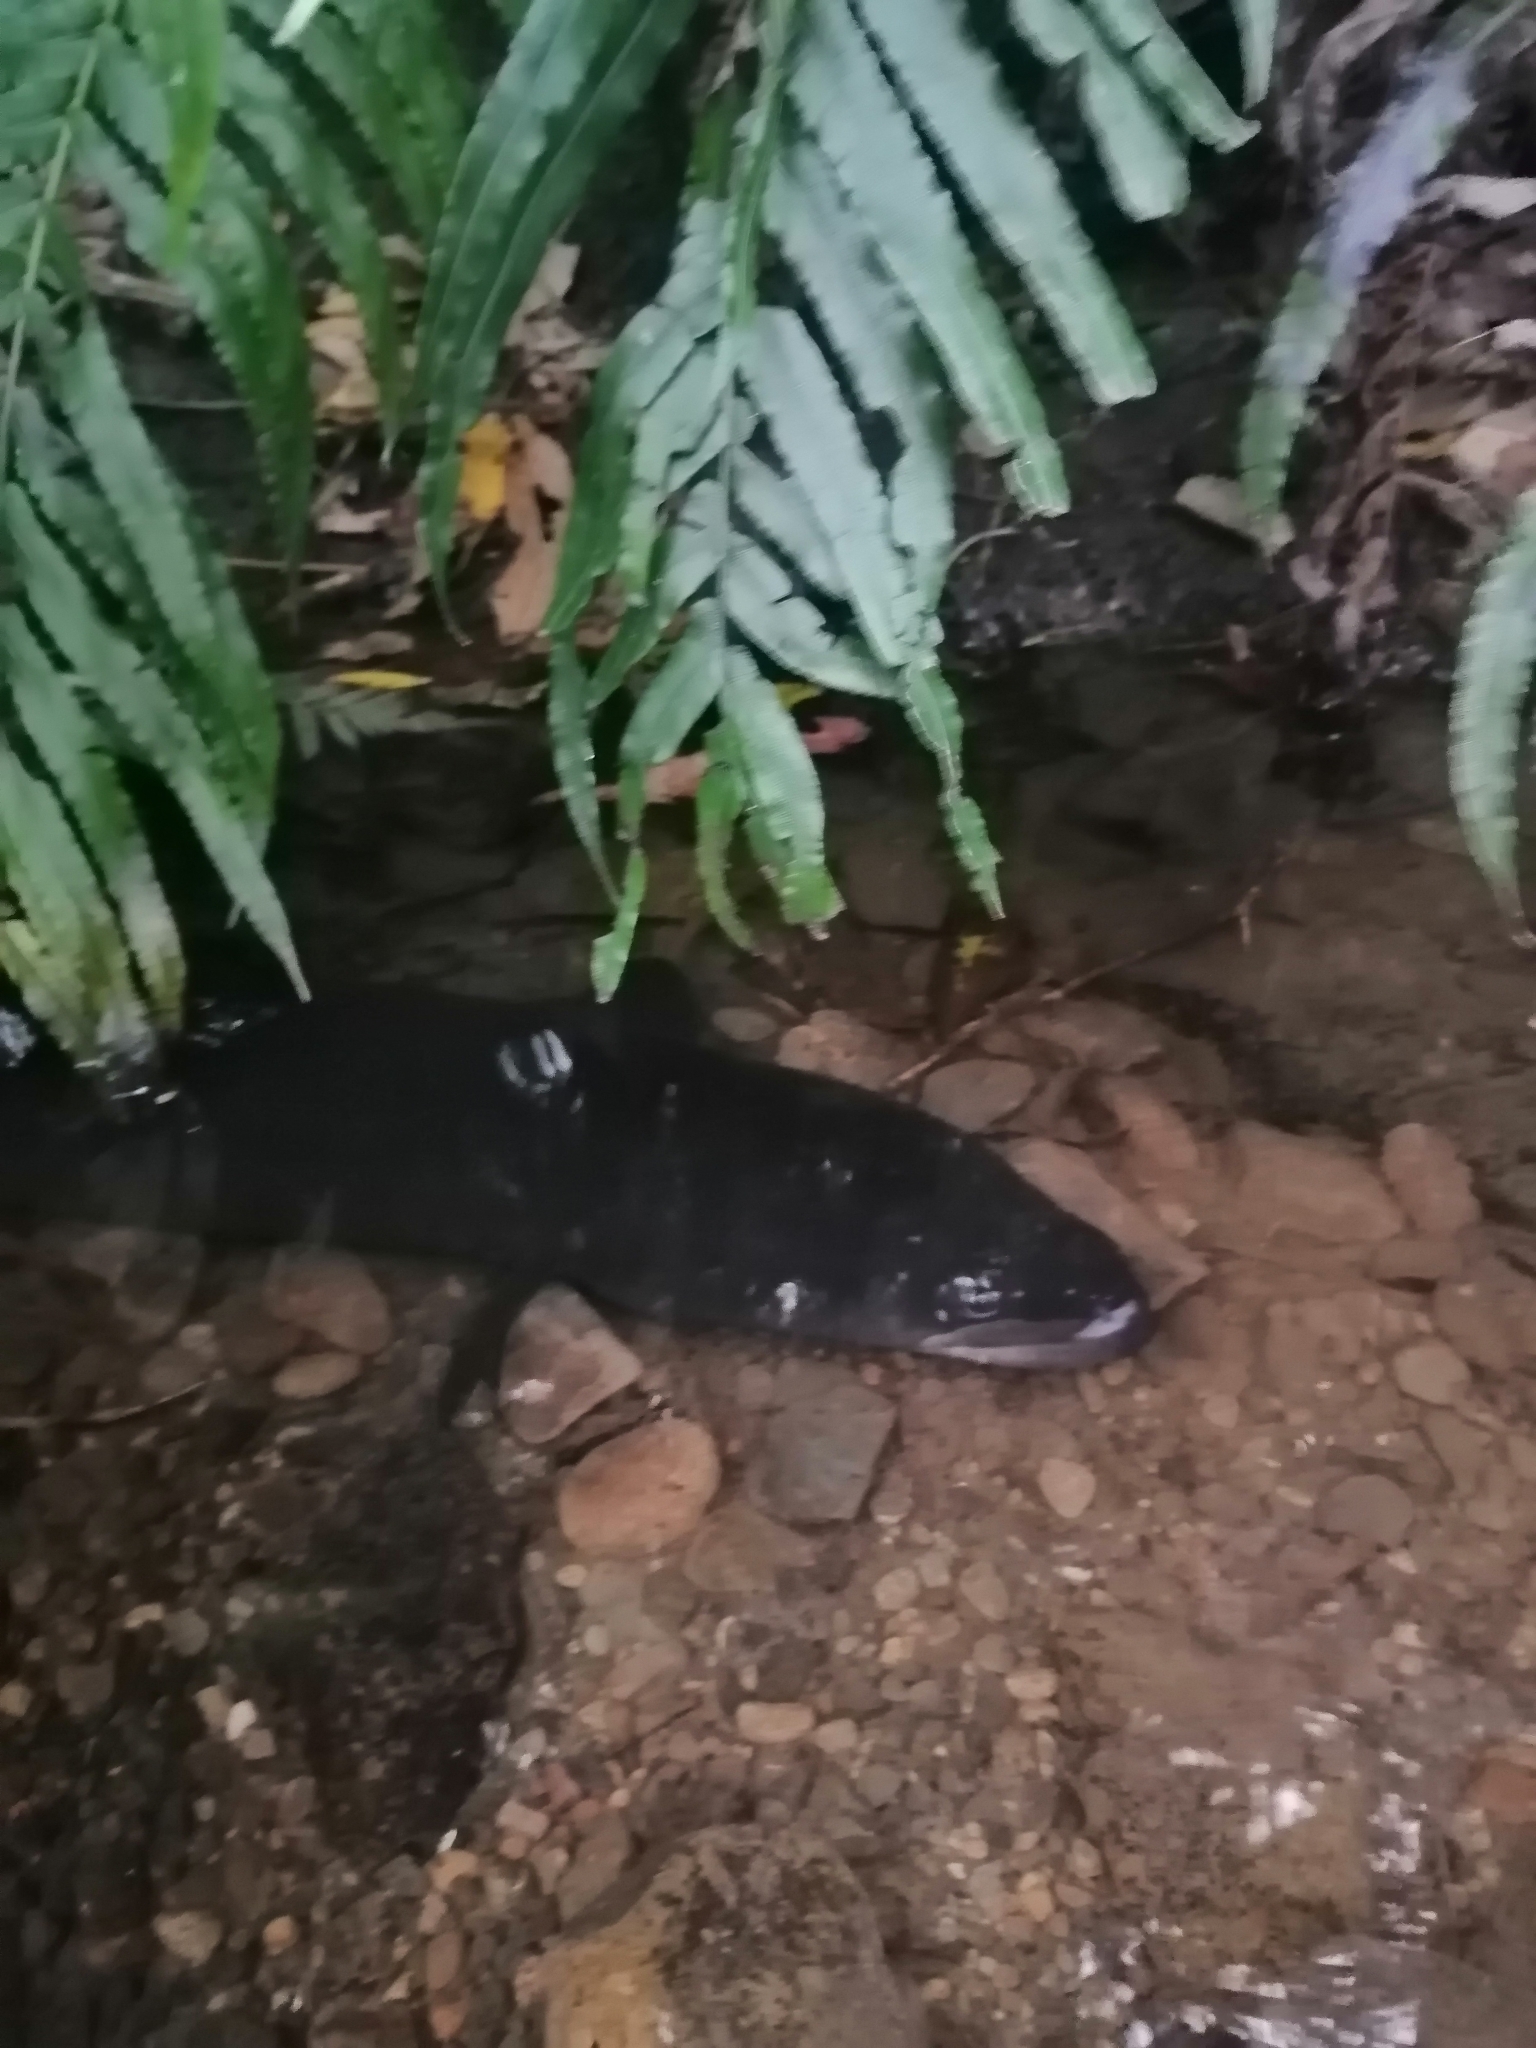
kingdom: Animalia
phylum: Chordata
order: Anguilliformes
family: Anguillidae
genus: Anguilla
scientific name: Anguilla dieffenbachii
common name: New zealand longfin eel
